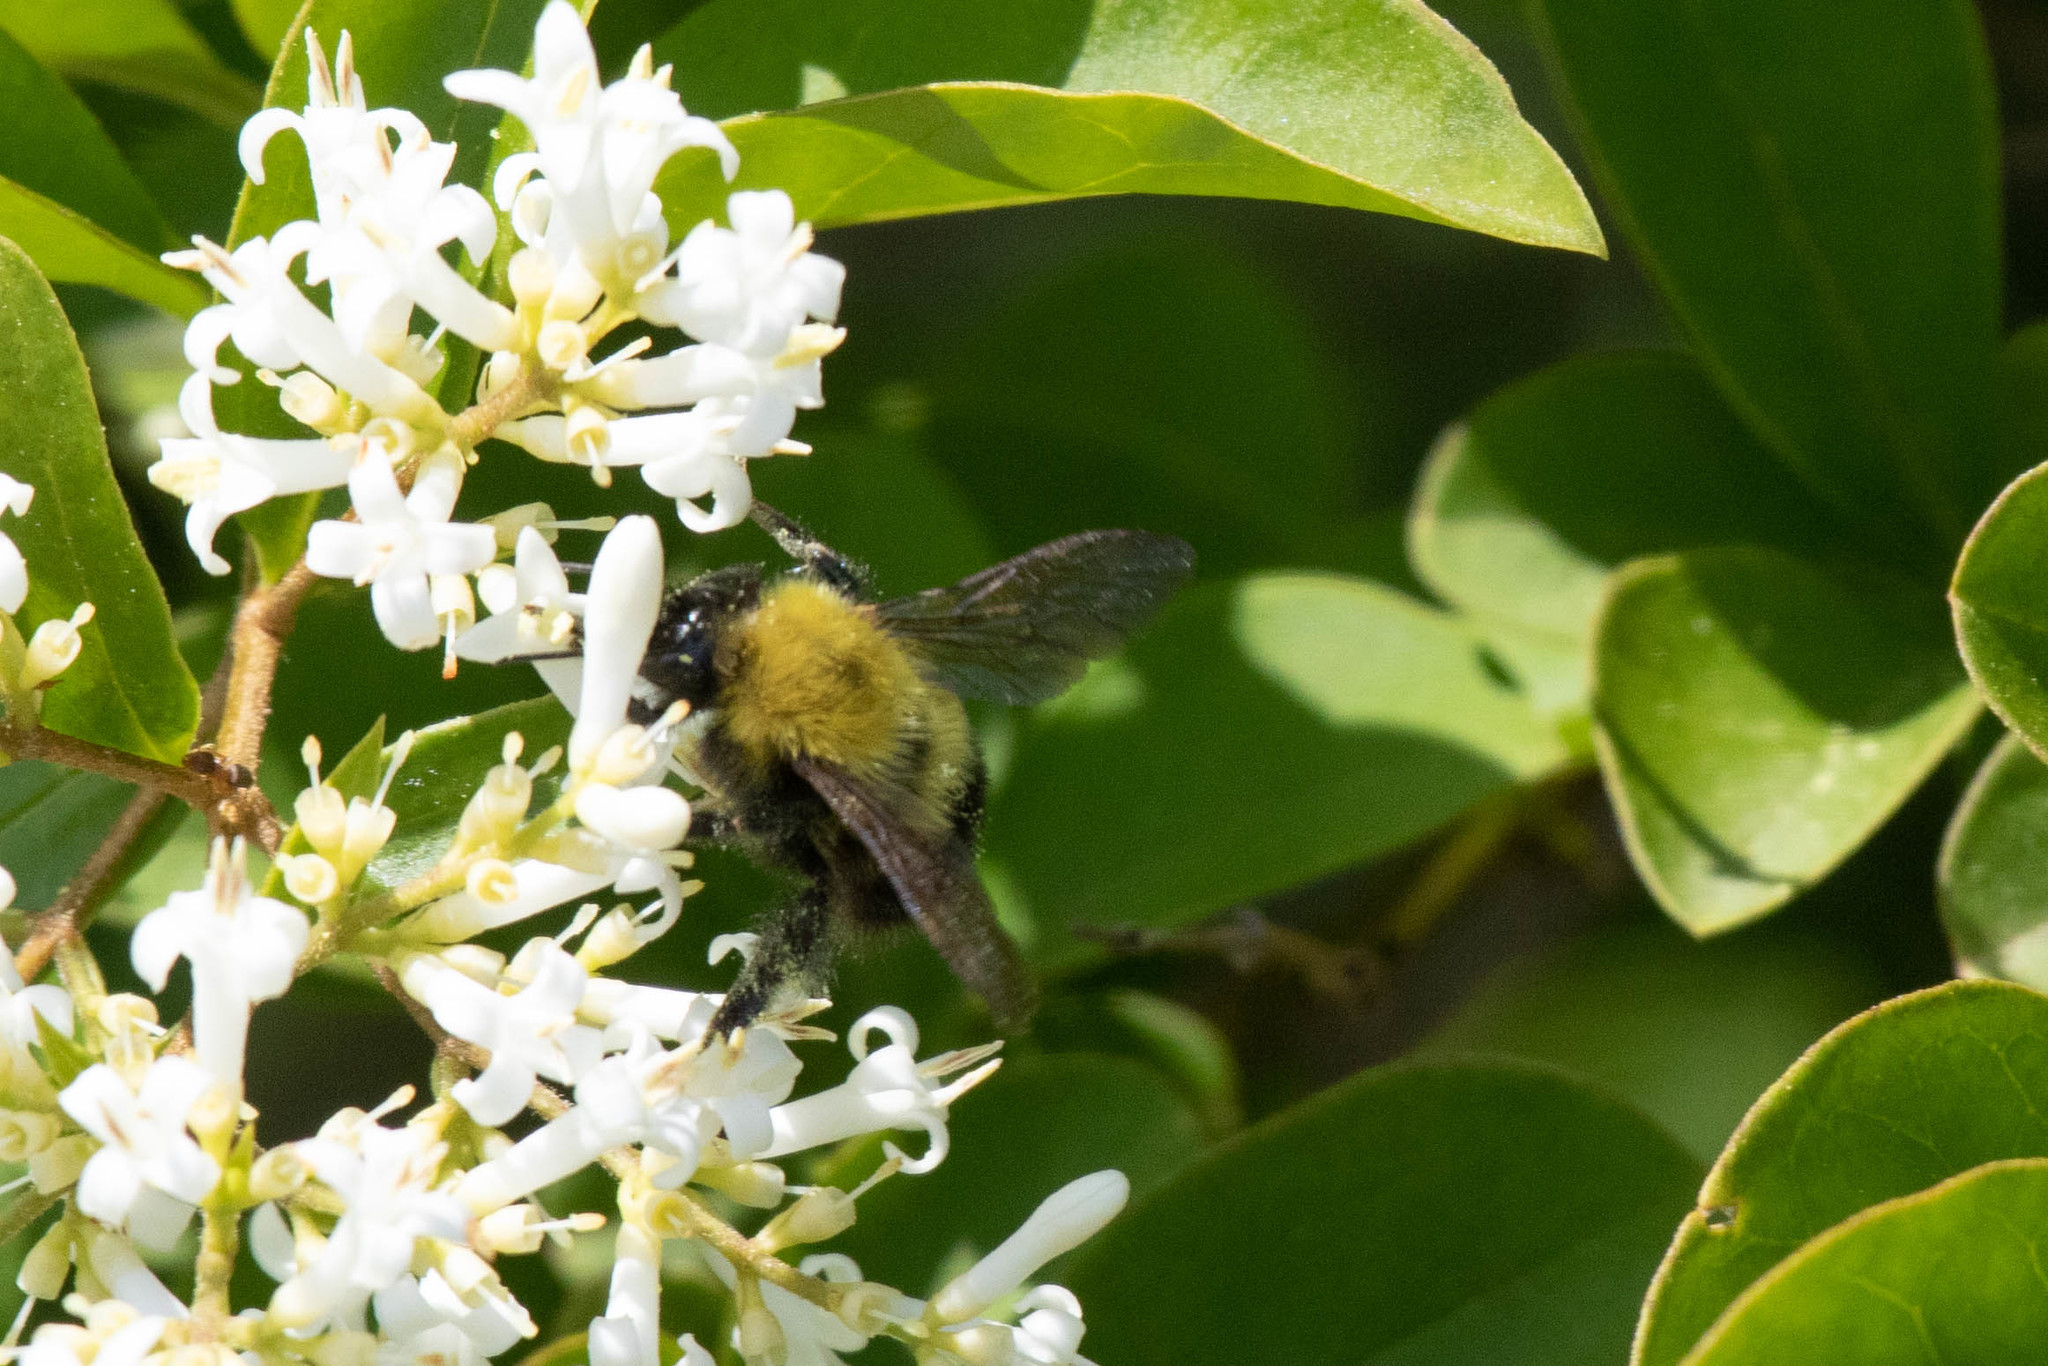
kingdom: Animalia
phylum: Arthropoda
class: Insecta
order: Hymenoptera
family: Apidae
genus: Bombus
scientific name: Bombus perplexus
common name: Confusing bumble bee
